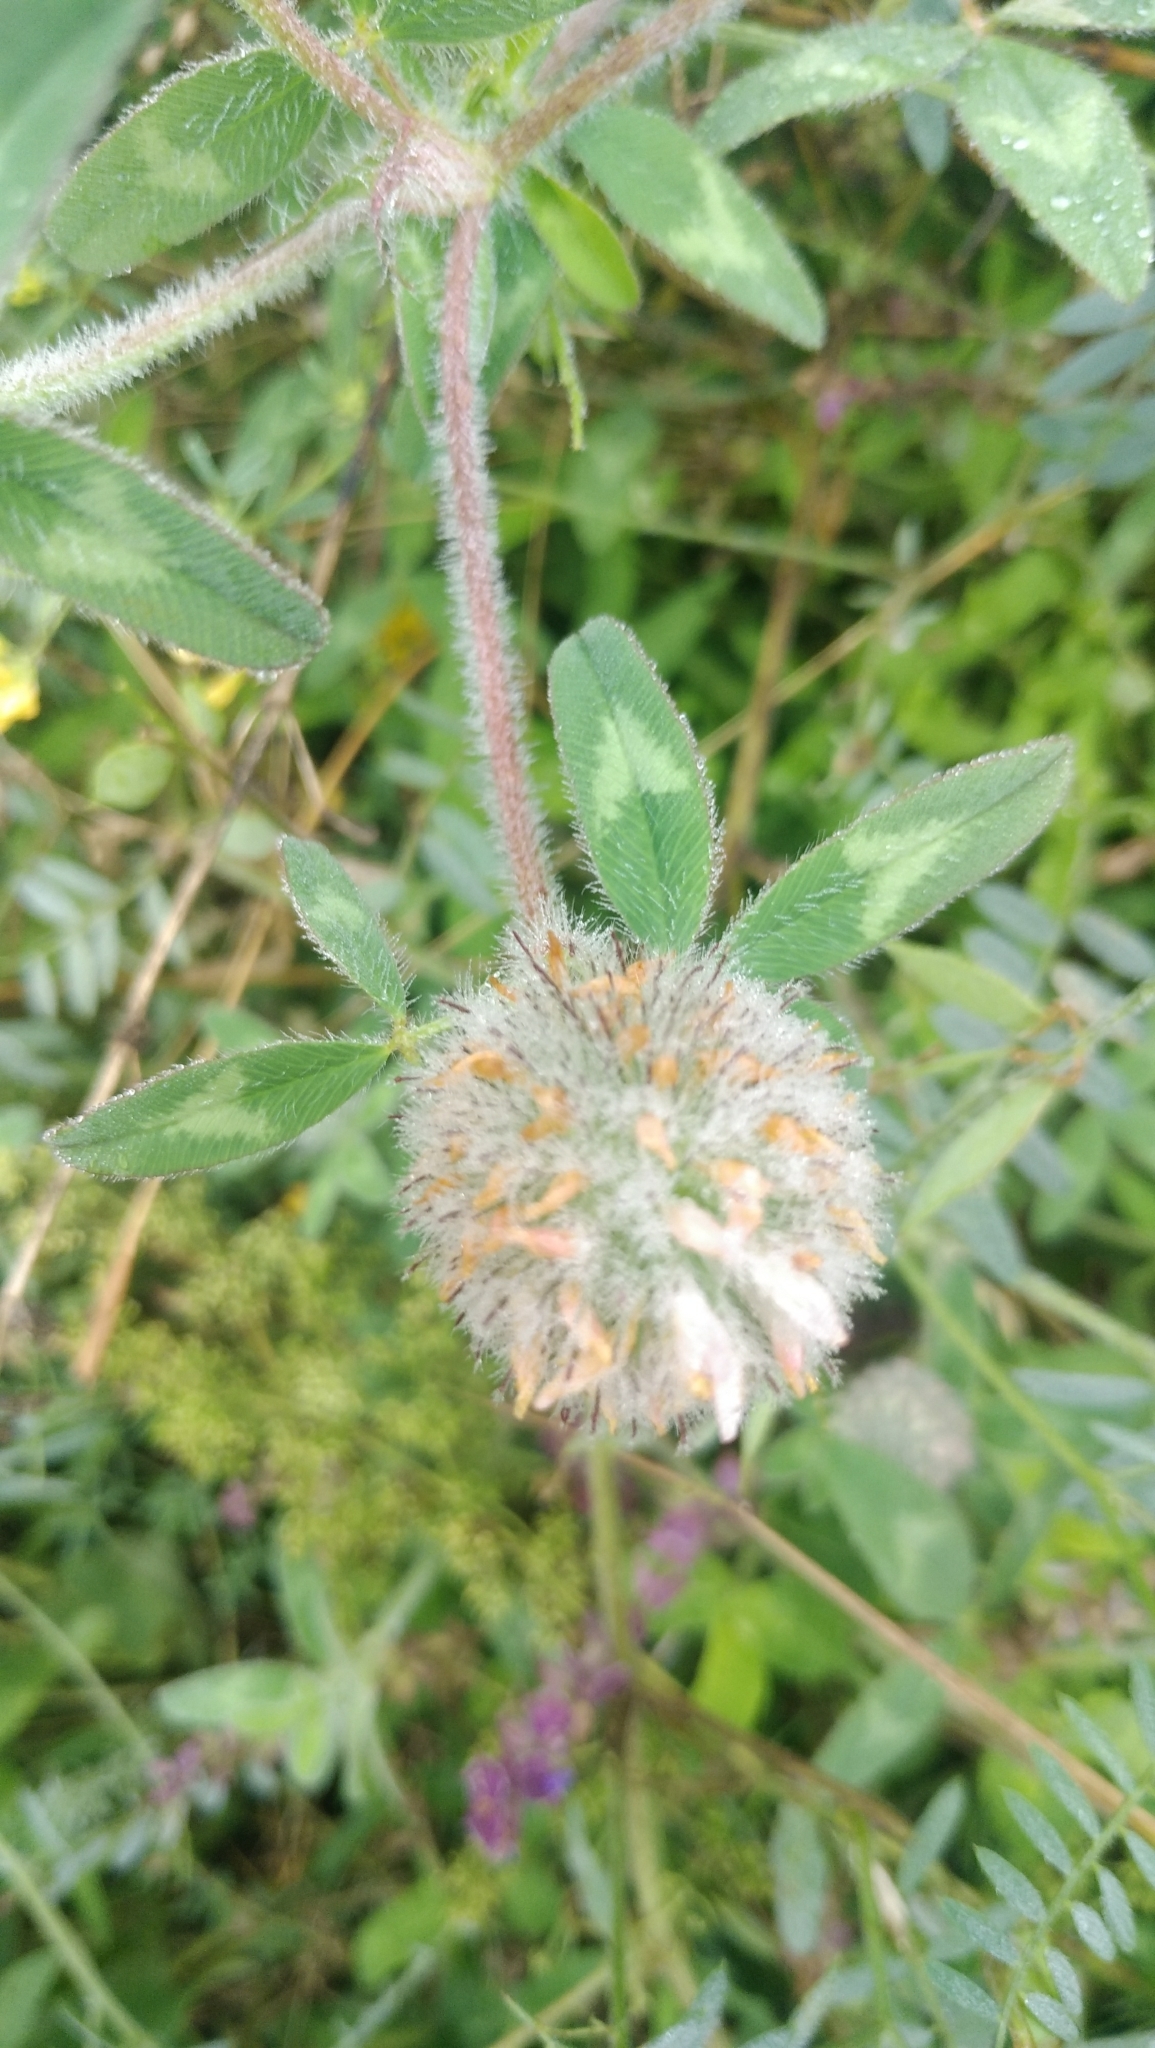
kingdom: Plantae
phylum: Tracheophyta
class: Magnoliopsida
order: Fabales
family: Fabaceae
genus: Trifolium
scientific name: Trifolium diffusum
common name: Diffuse clover
